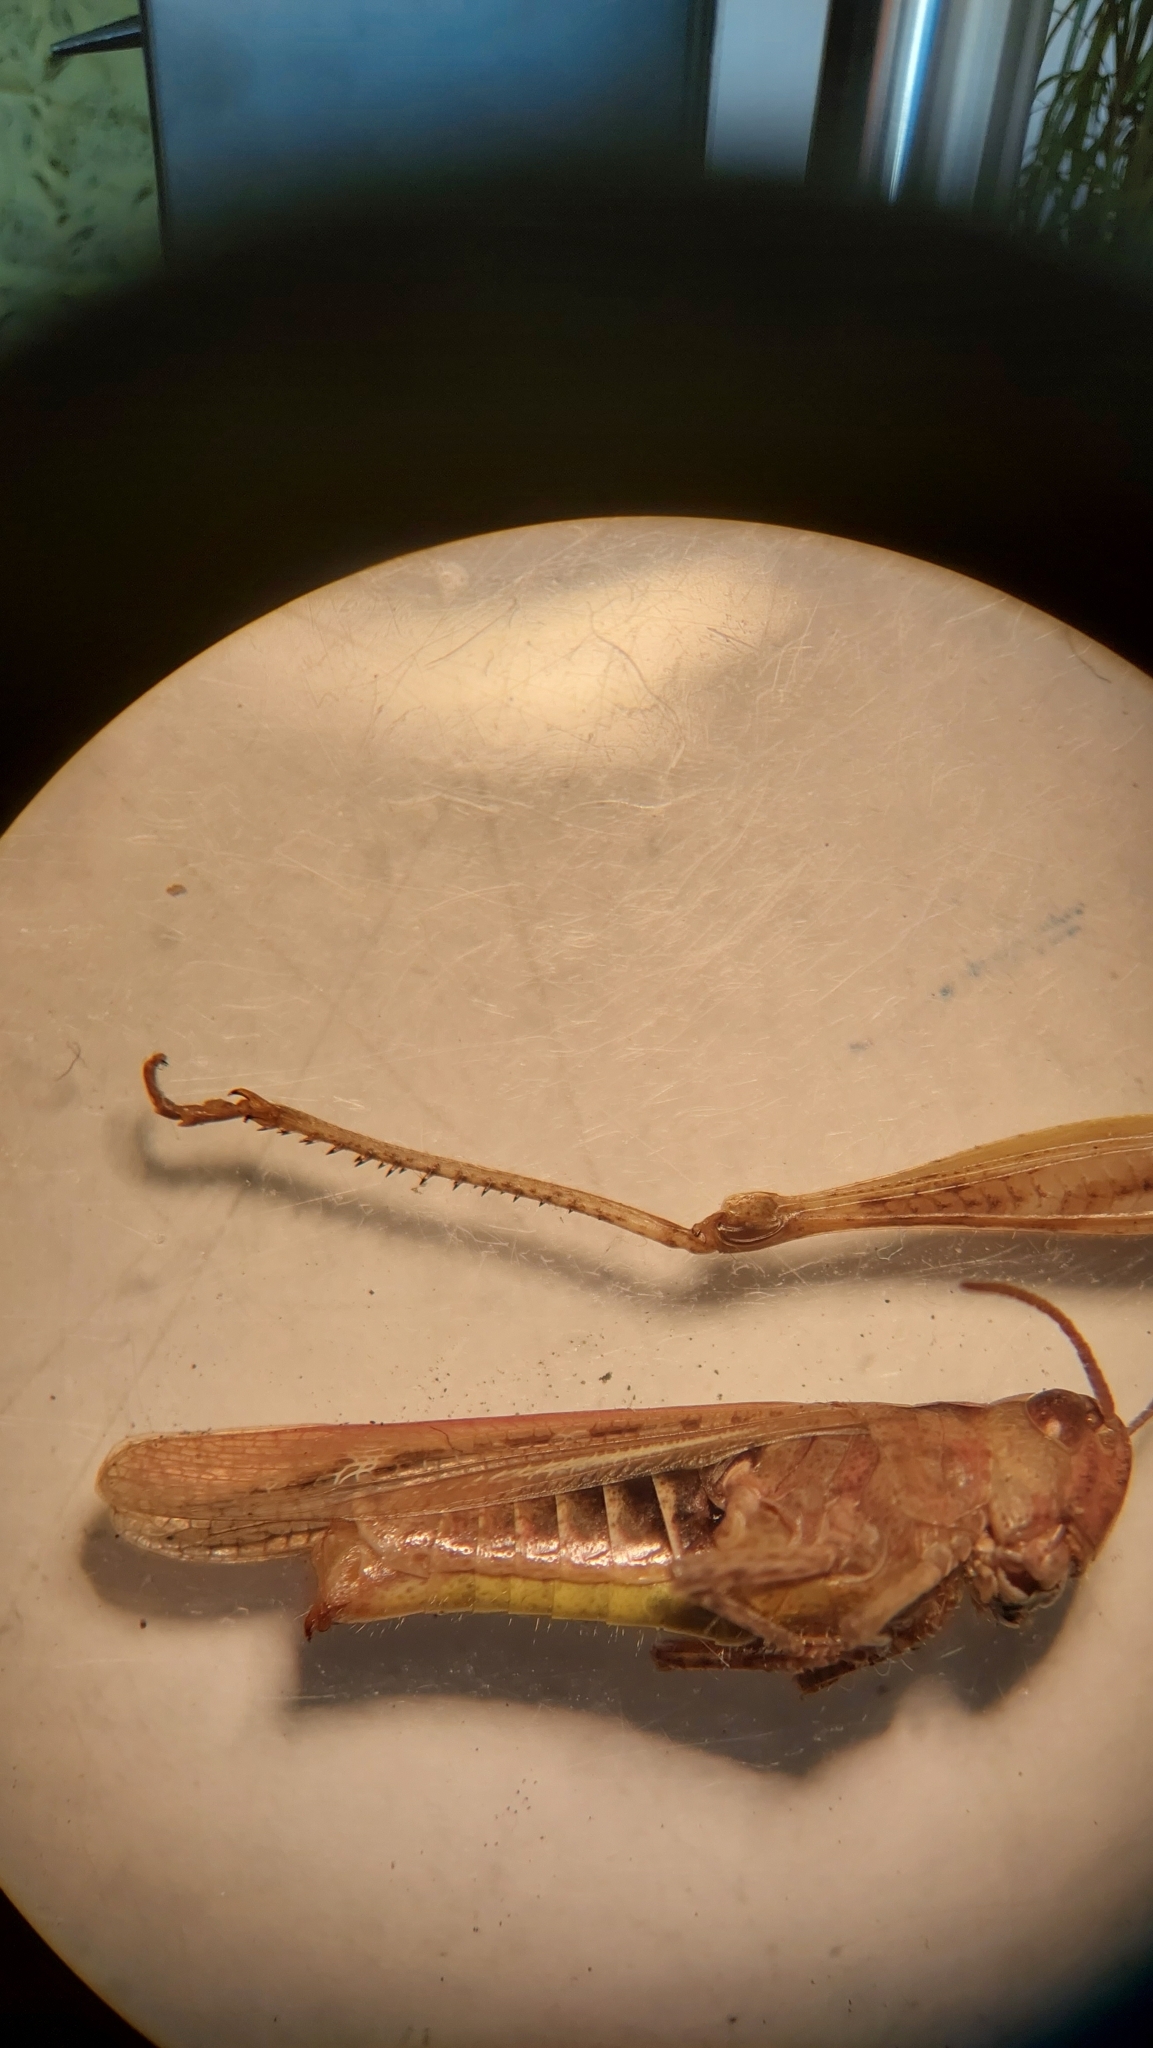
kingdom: Animalia
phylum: Arthropoda
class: Insecta
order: Orthoptera
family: Acrididae
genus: Chorthippus
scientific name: Chorthippus brunneus
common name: Field grasshopper
